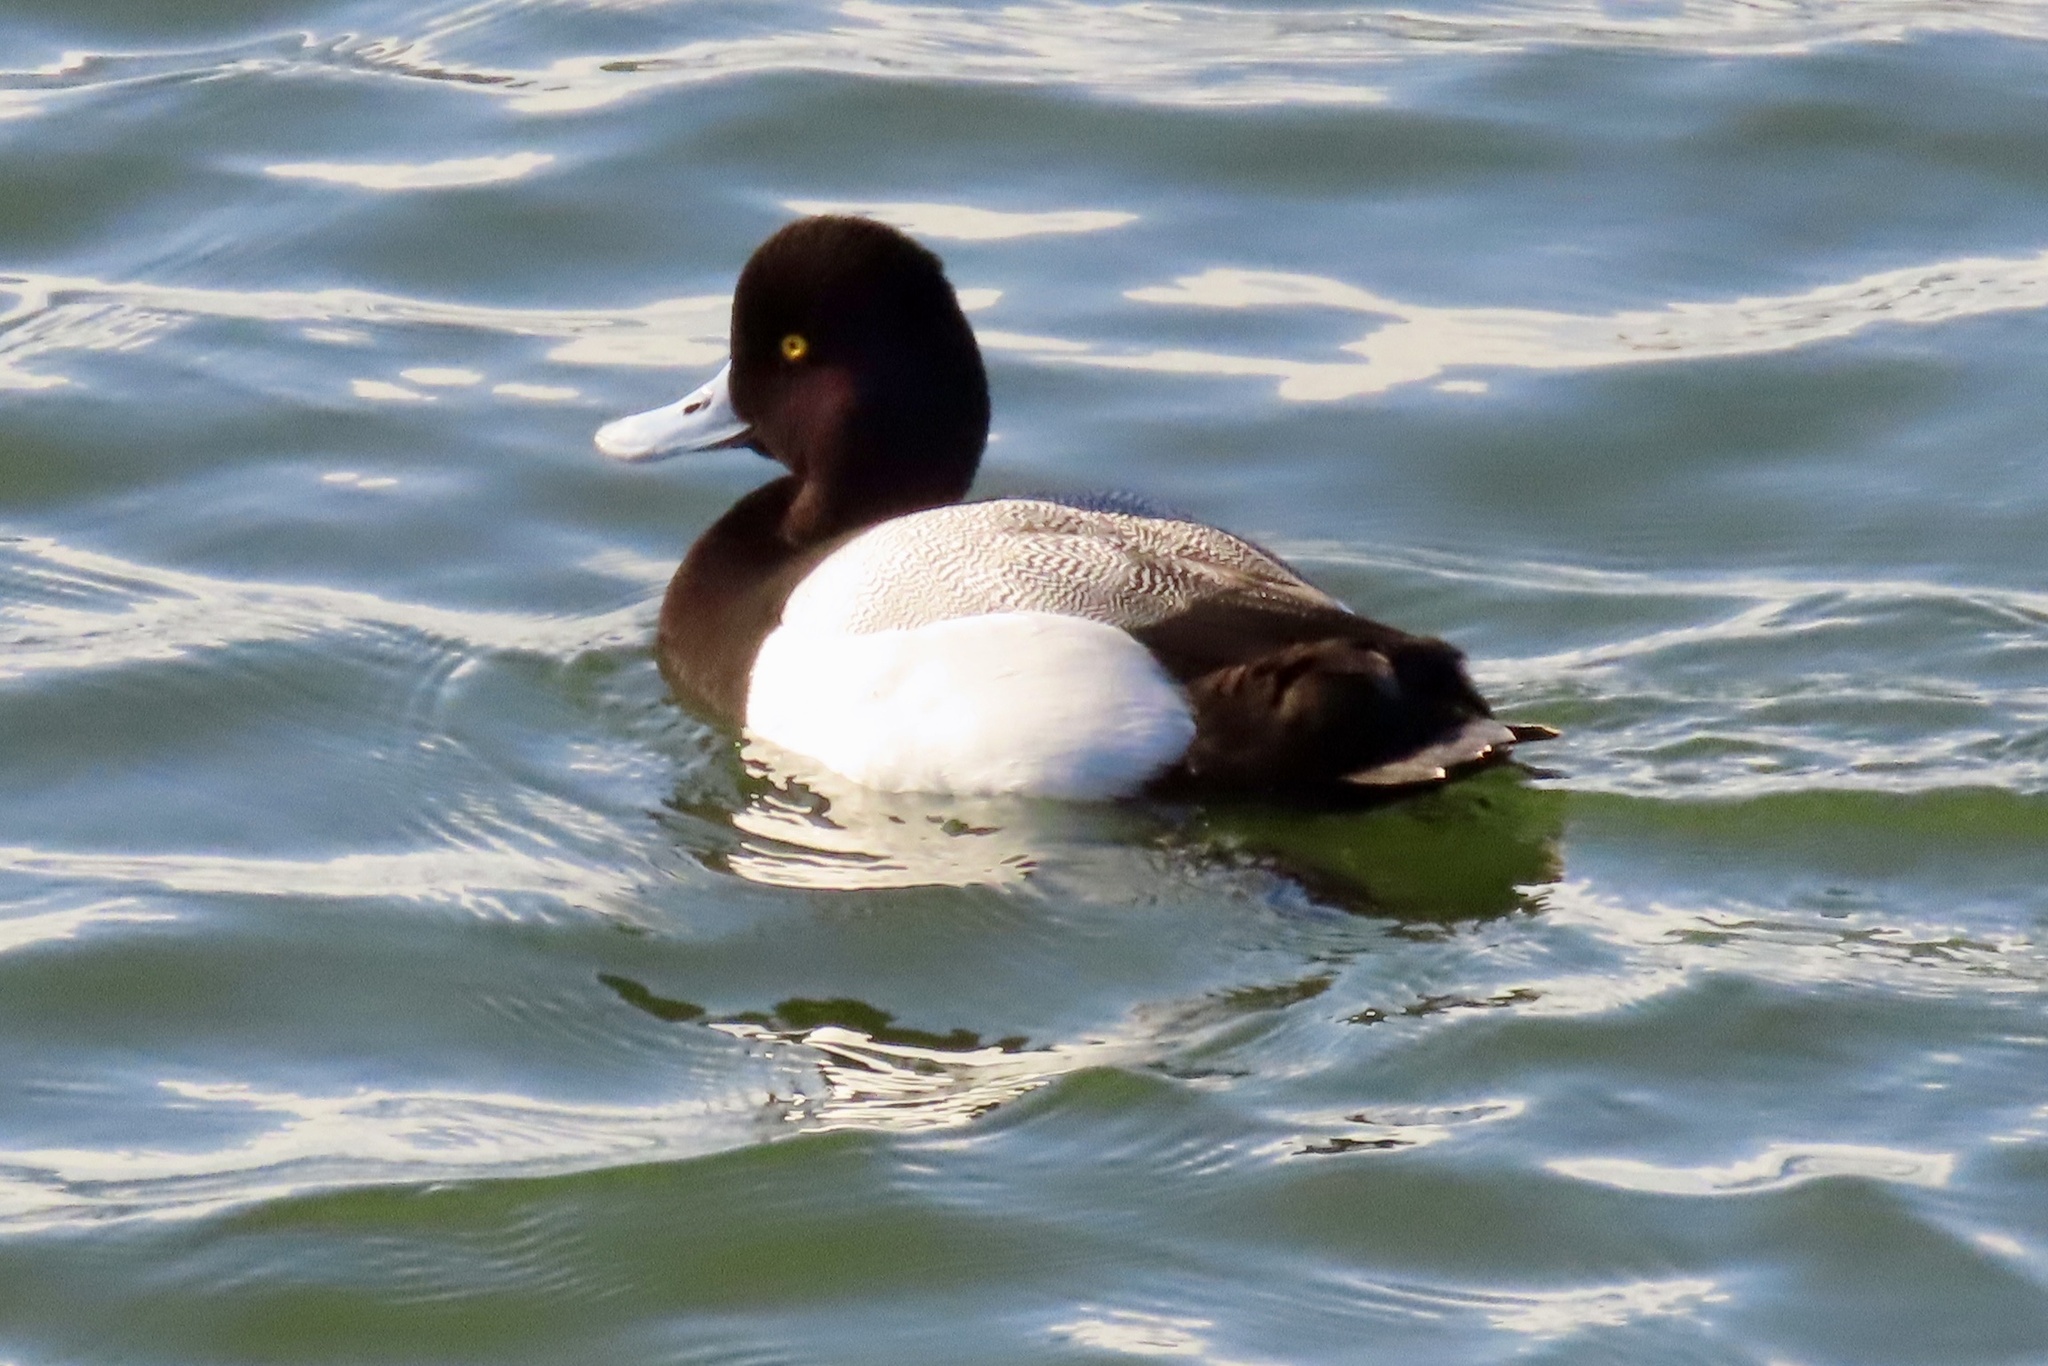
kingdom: Animalia
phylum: Chordata
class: Aves
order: Anseriformes
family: Anatidae
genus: Aythya
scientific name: Aythya affinis
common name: Lesser scaup
